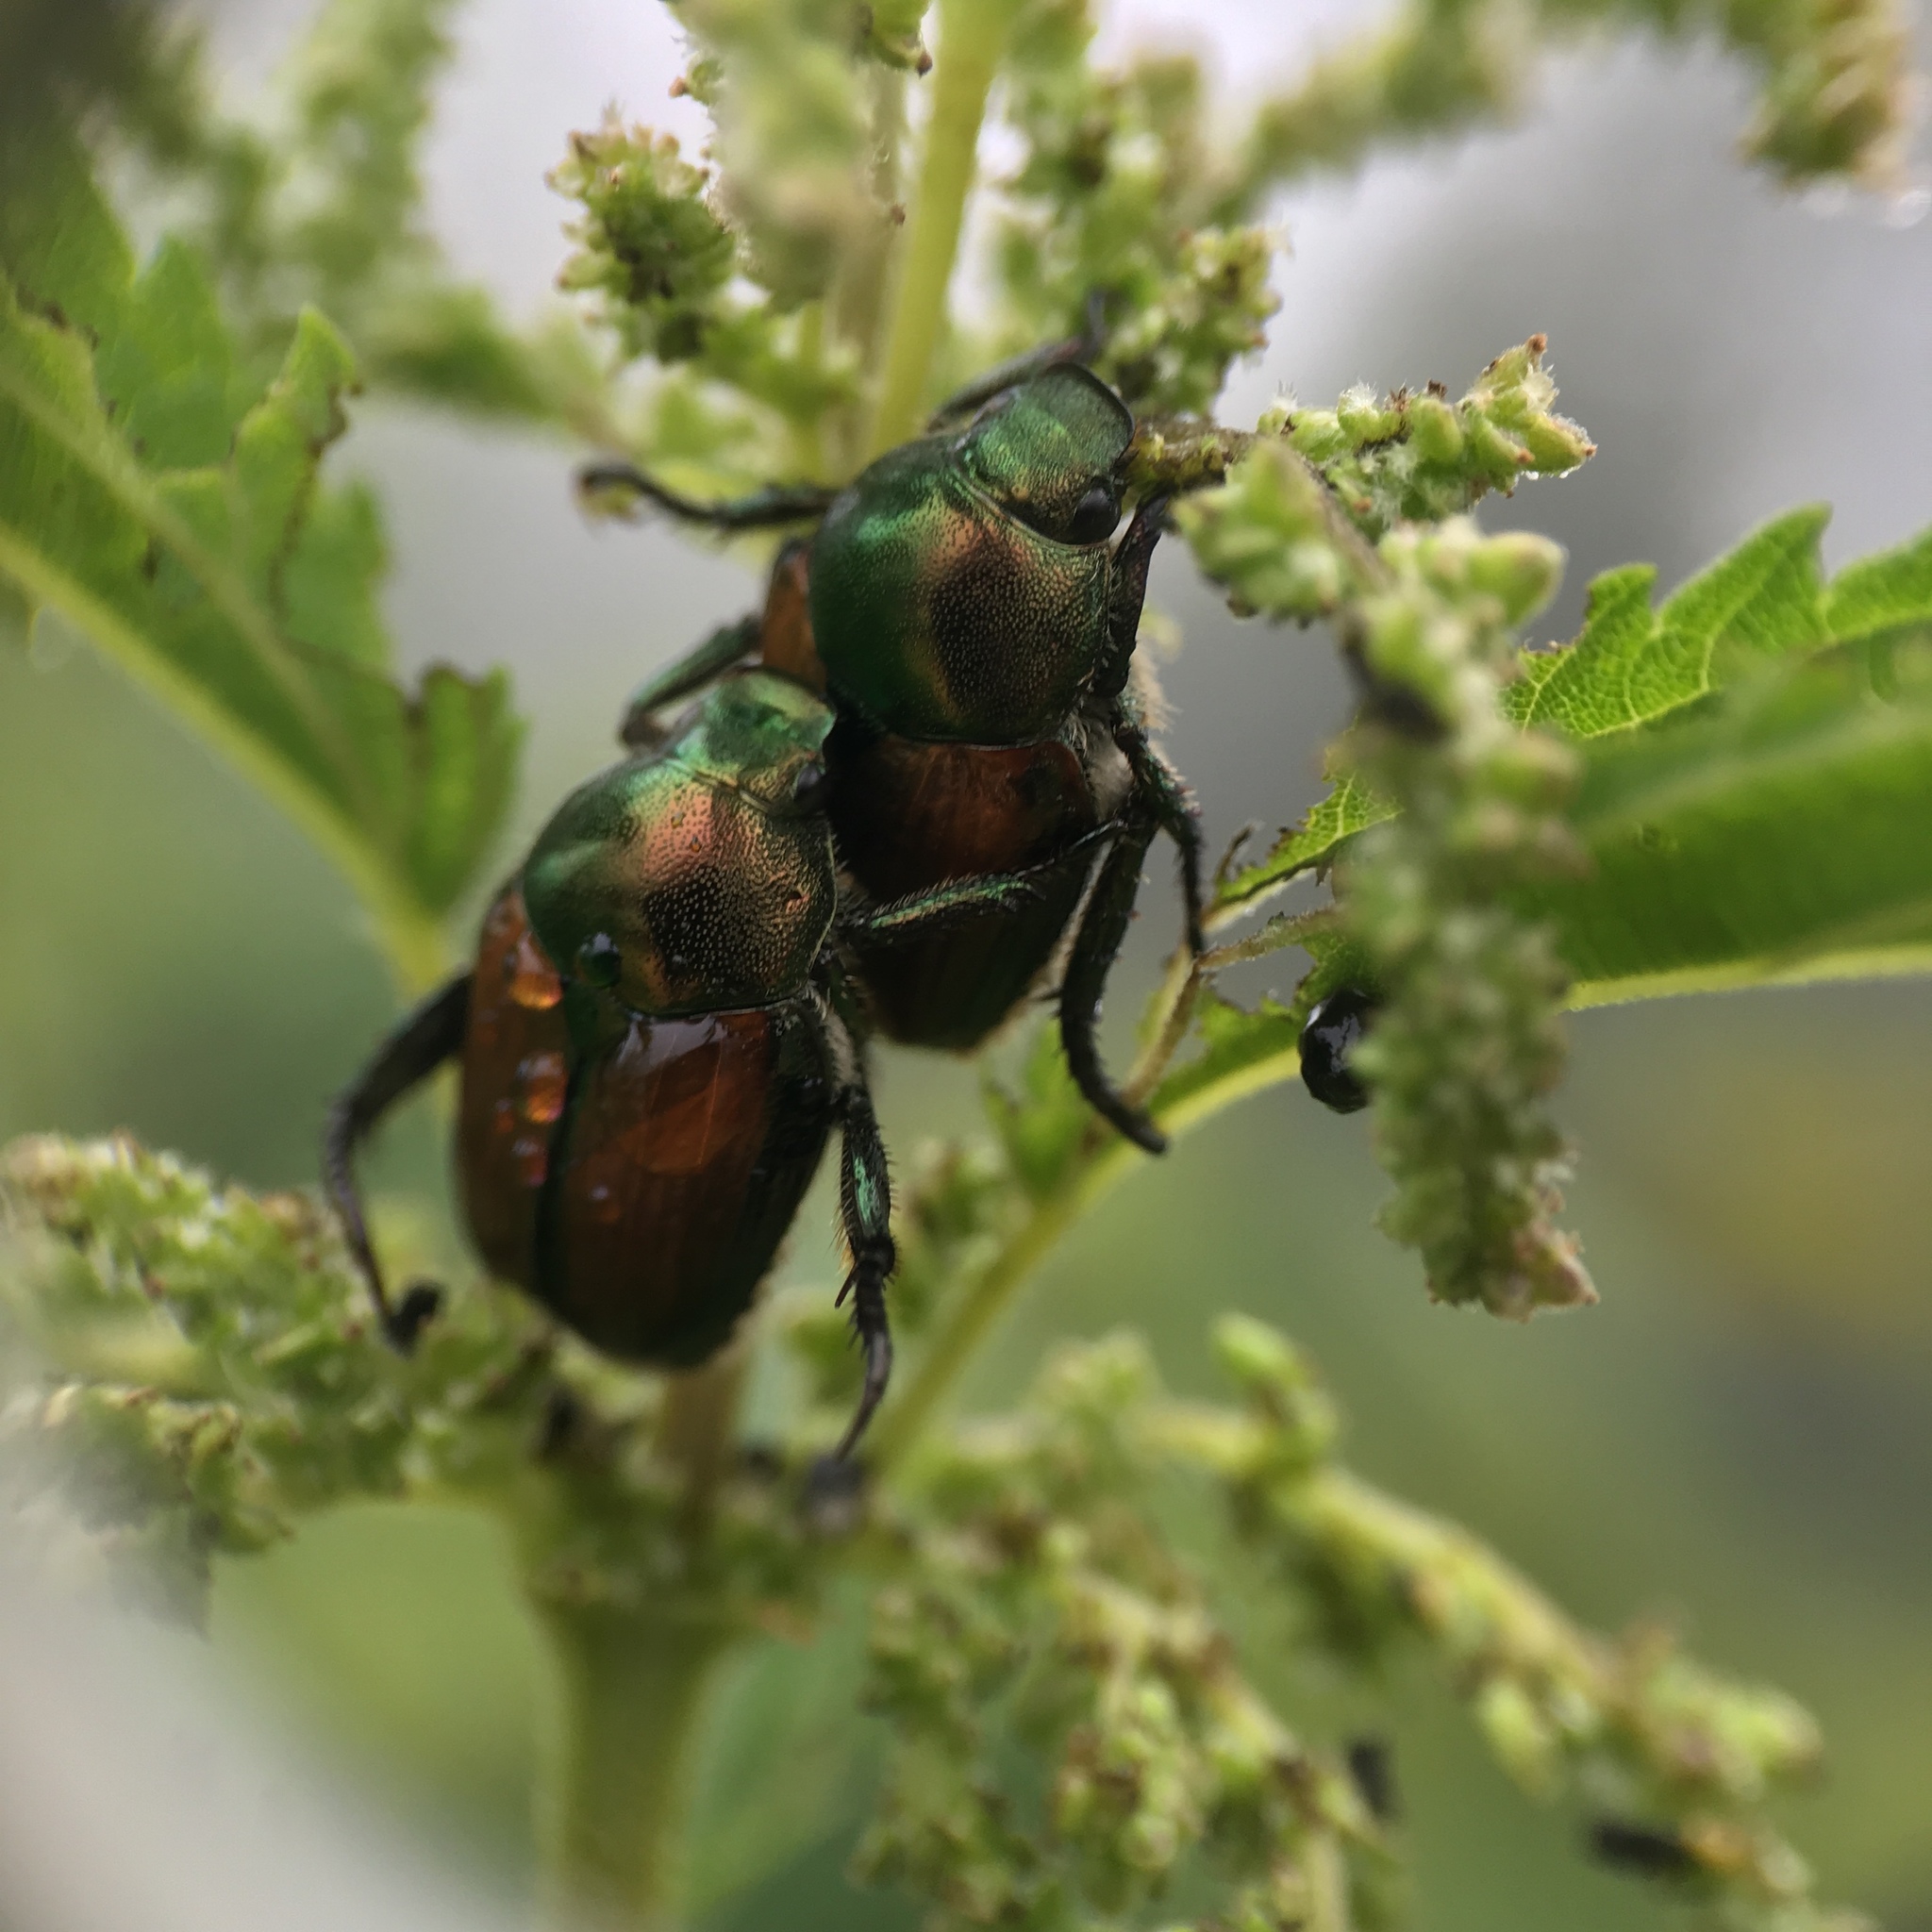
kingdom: Animalia
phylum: Arthropoda
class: Insecta
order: Coleoptera
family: Scarabaeidae
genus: Popillia
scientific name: Popillia japonica
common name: Japanese beetle
